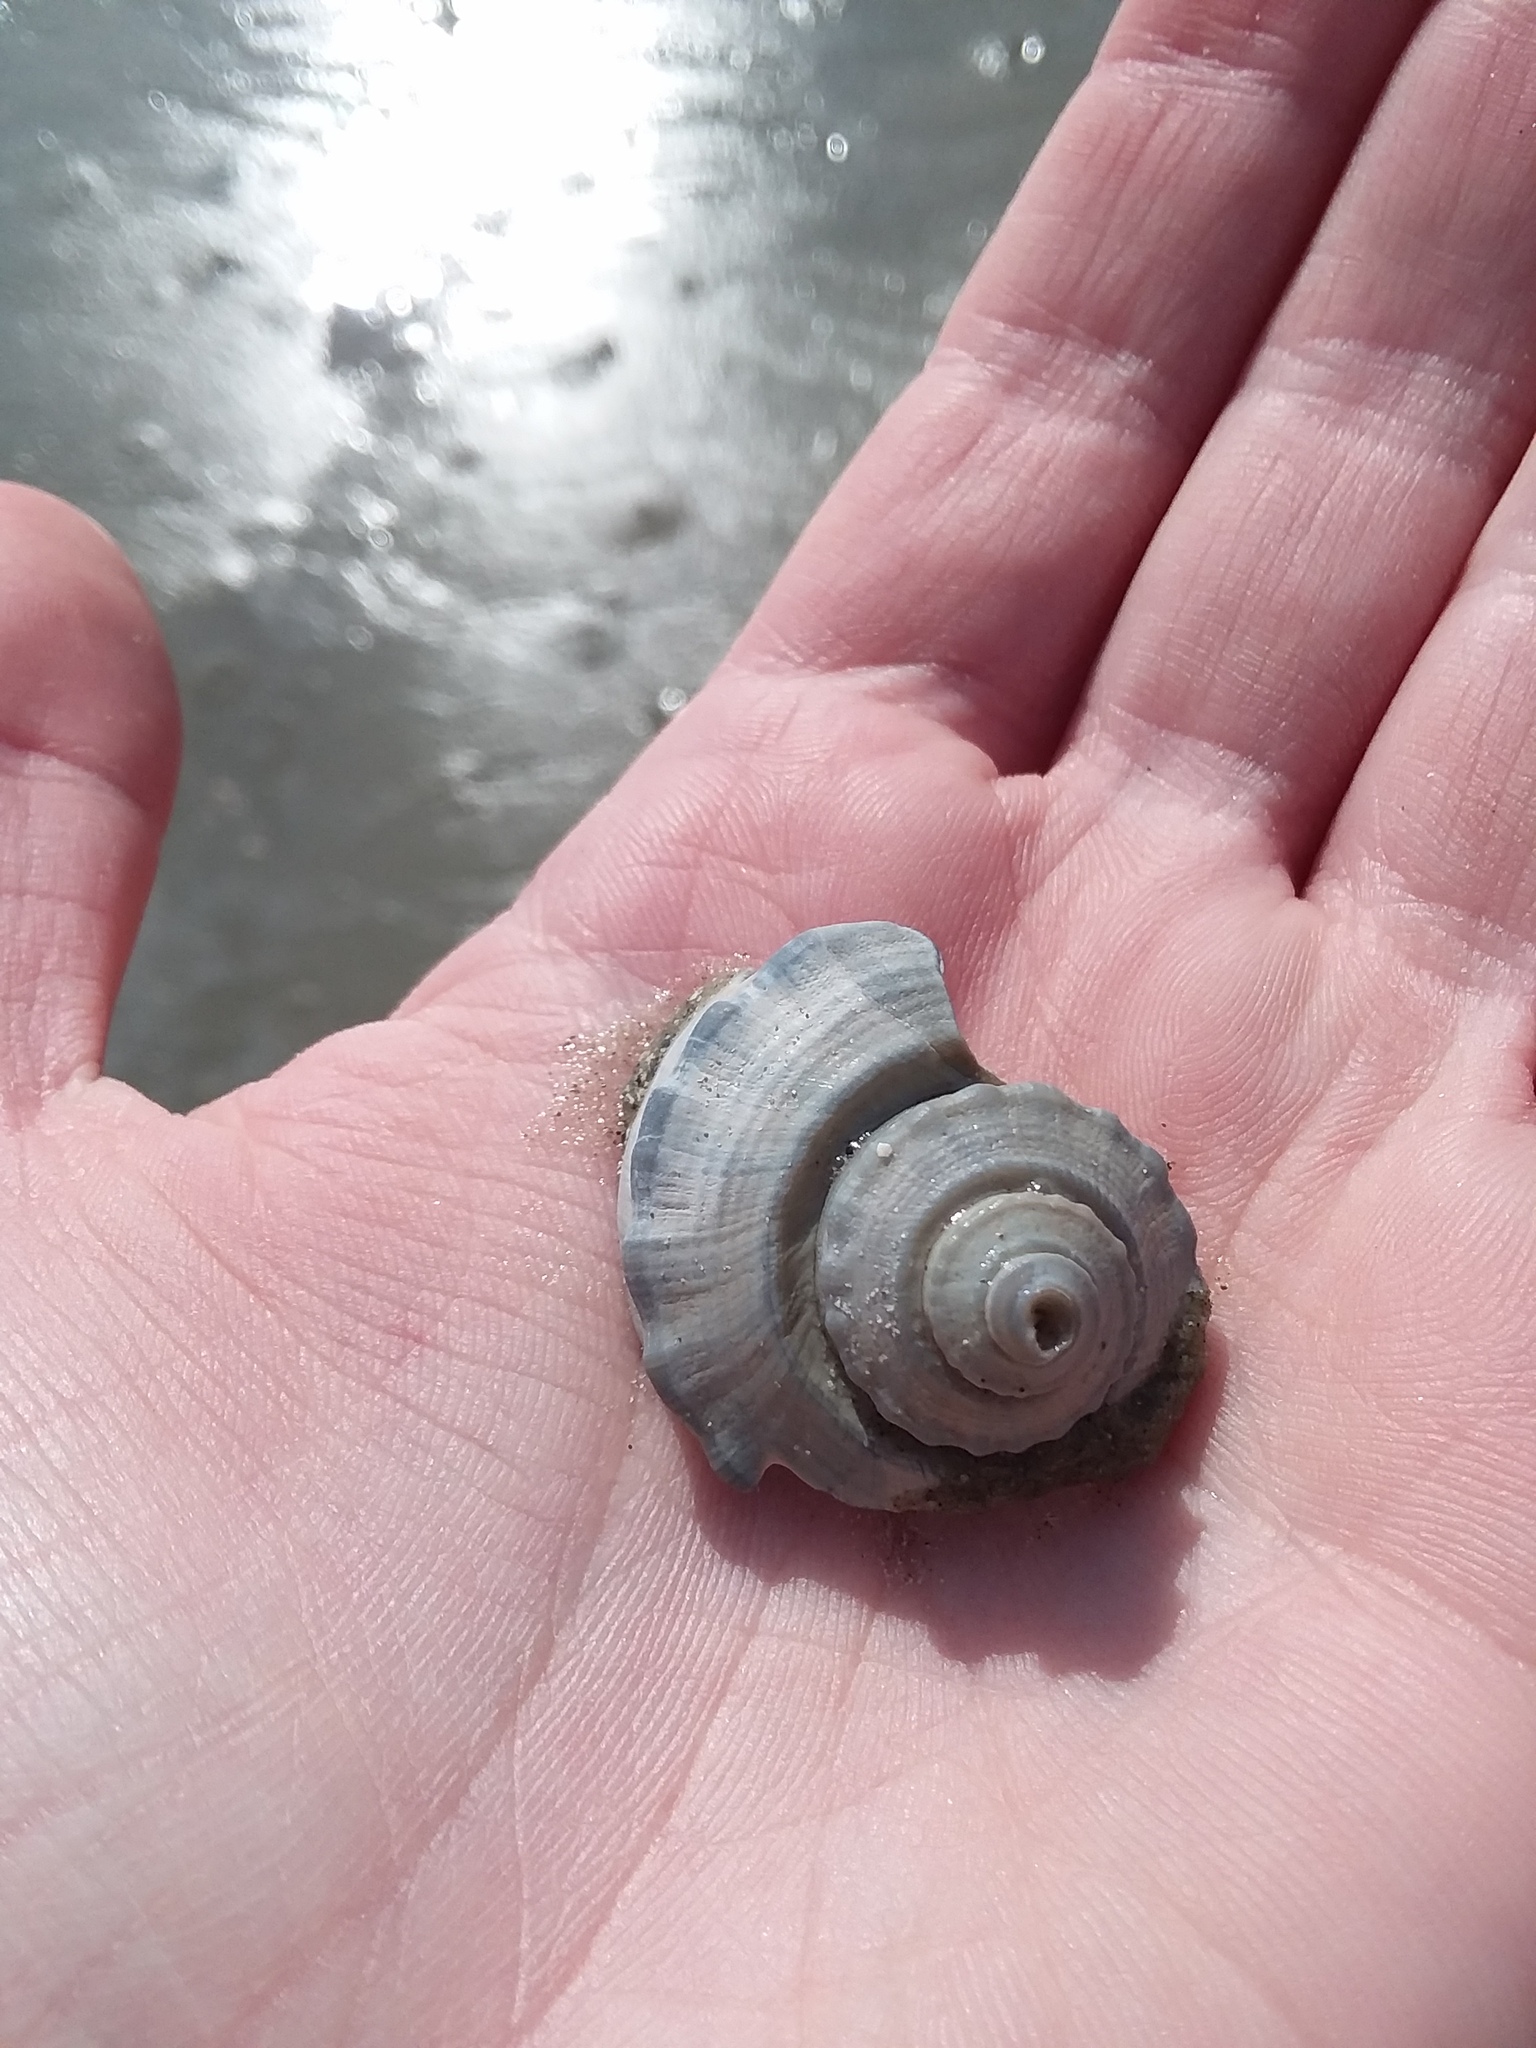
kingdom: Animalia
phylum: Mollusca
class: Gastropoda
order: Neogastropoda
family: Busyconidae
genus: Busycotypus
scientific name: Busycotypus canaliculatus
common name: Channeled whelk
